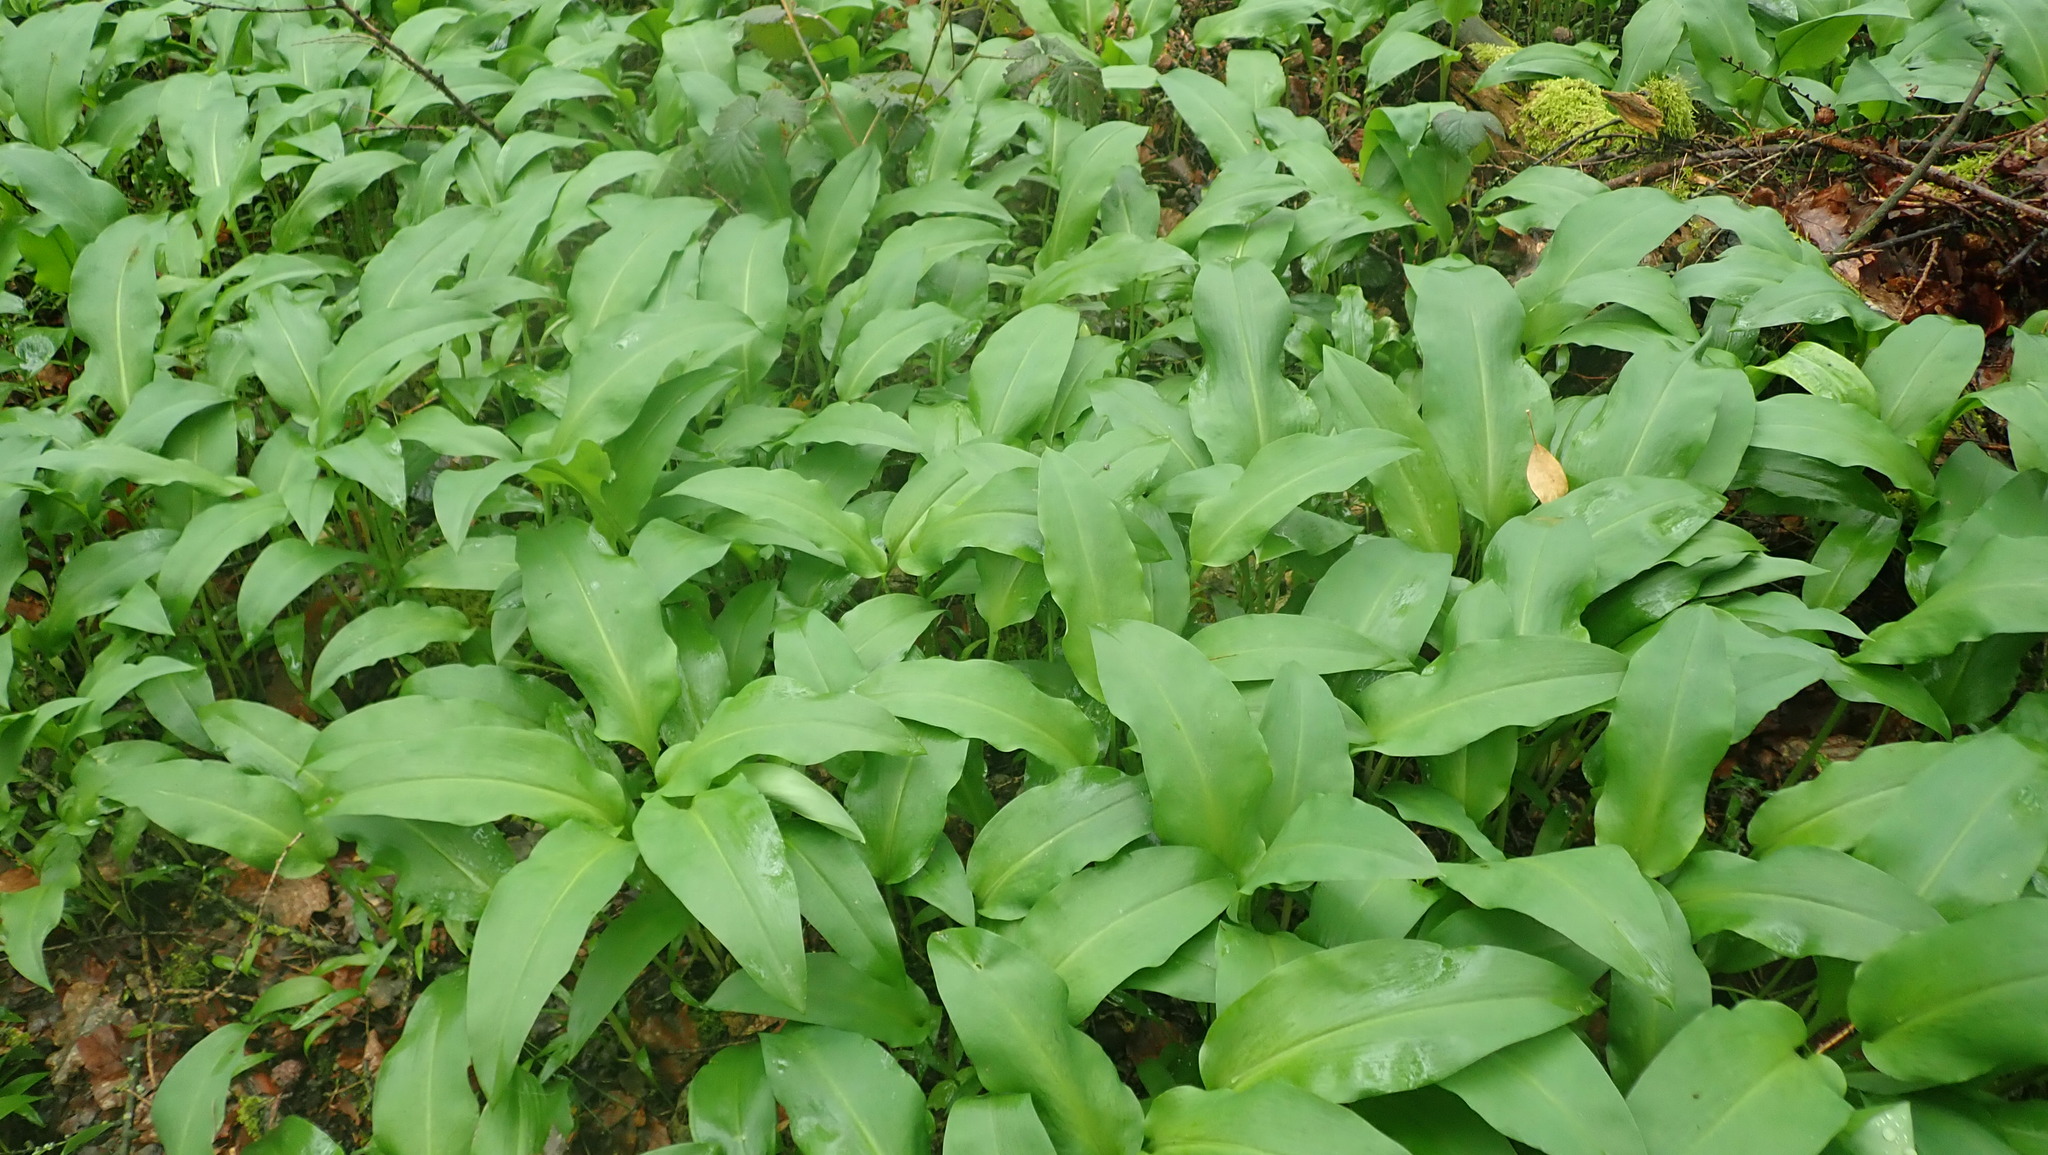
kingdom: Plantae
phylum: Tracheophyta
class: Liliopsida
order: Asparagales
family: Amaryllidaceae
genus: Allium
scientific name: Allium ursinum
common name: Ramsons
